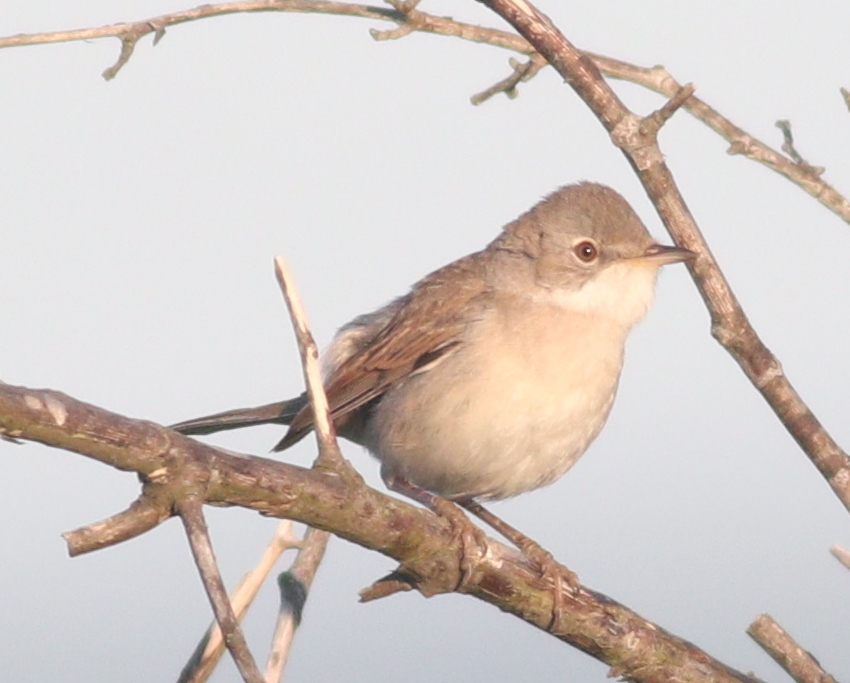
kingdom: Animalia
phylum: Chordata
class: Aves
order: Passeriformes
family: Sylviidae
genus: Sylvia
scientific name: Sylvia communis
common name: Common whitethroat
